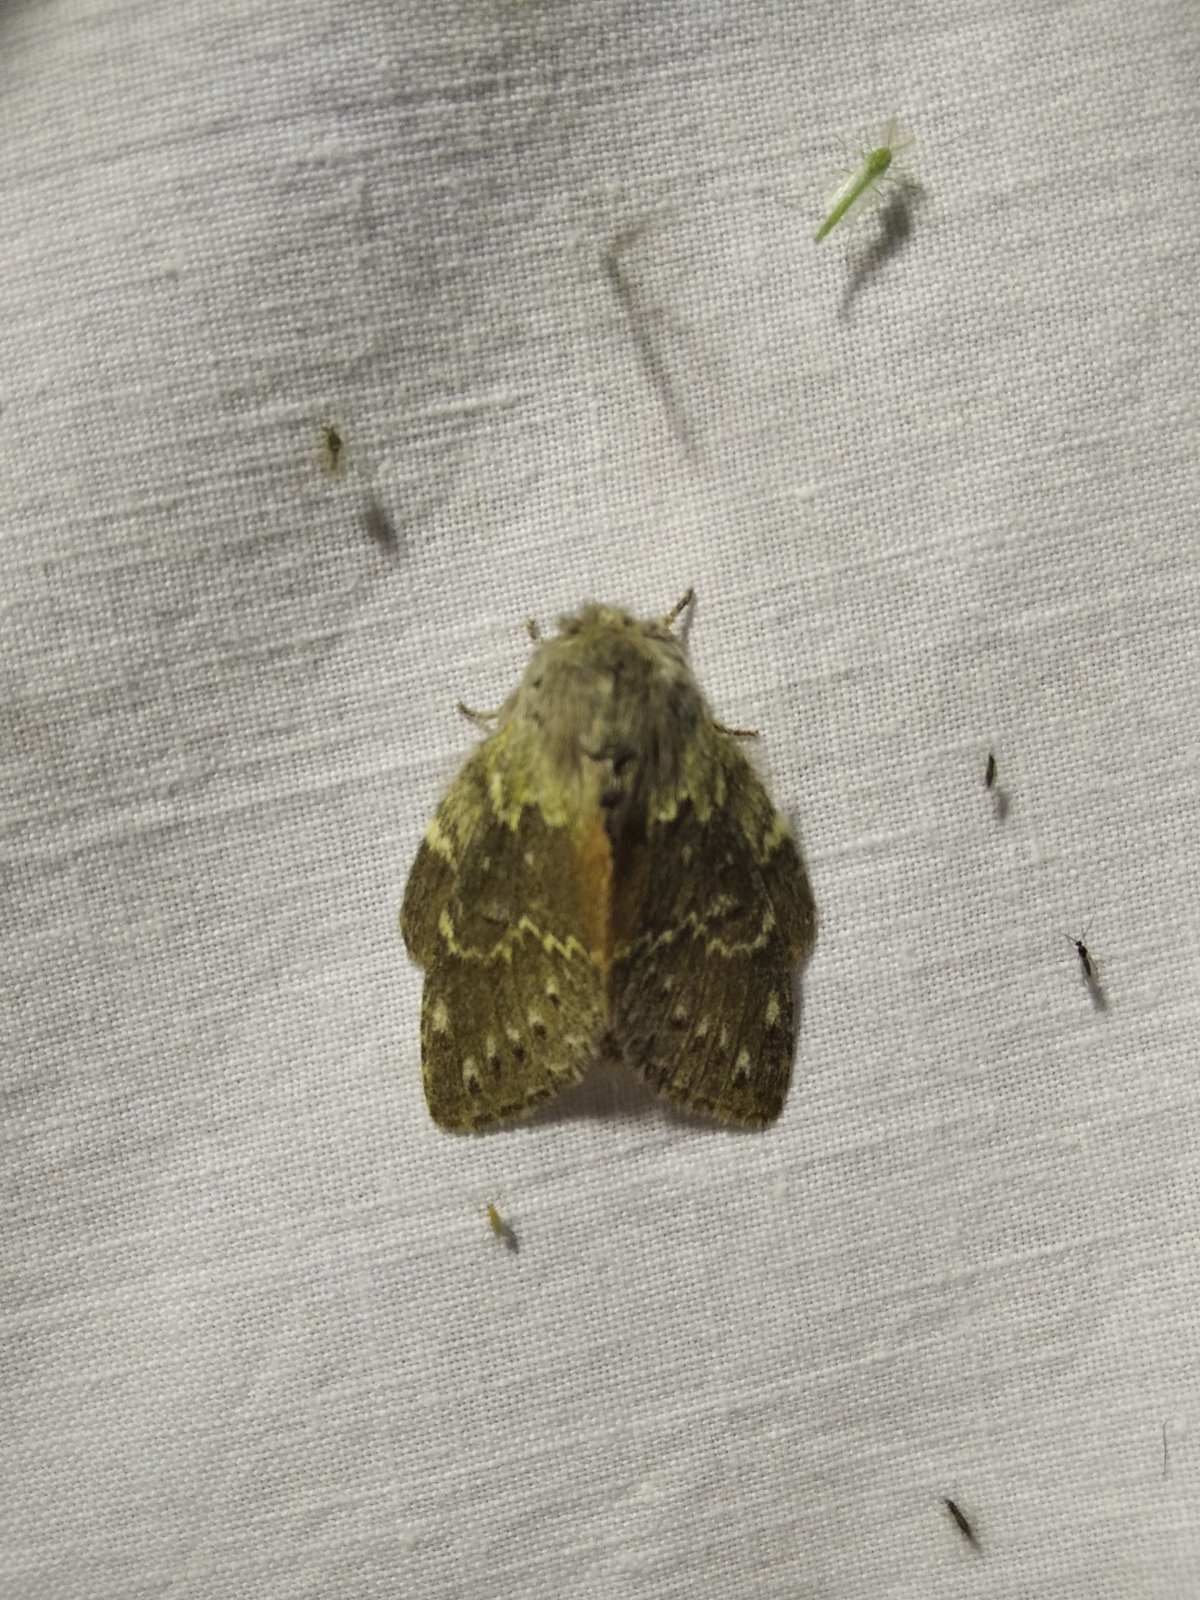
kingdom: Animalia
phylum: Arthropoda
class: Insecta
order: Lepidoptera
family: Notodontidae
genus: Stauropus
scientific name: Stauropus fagi
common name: Lobster moth
